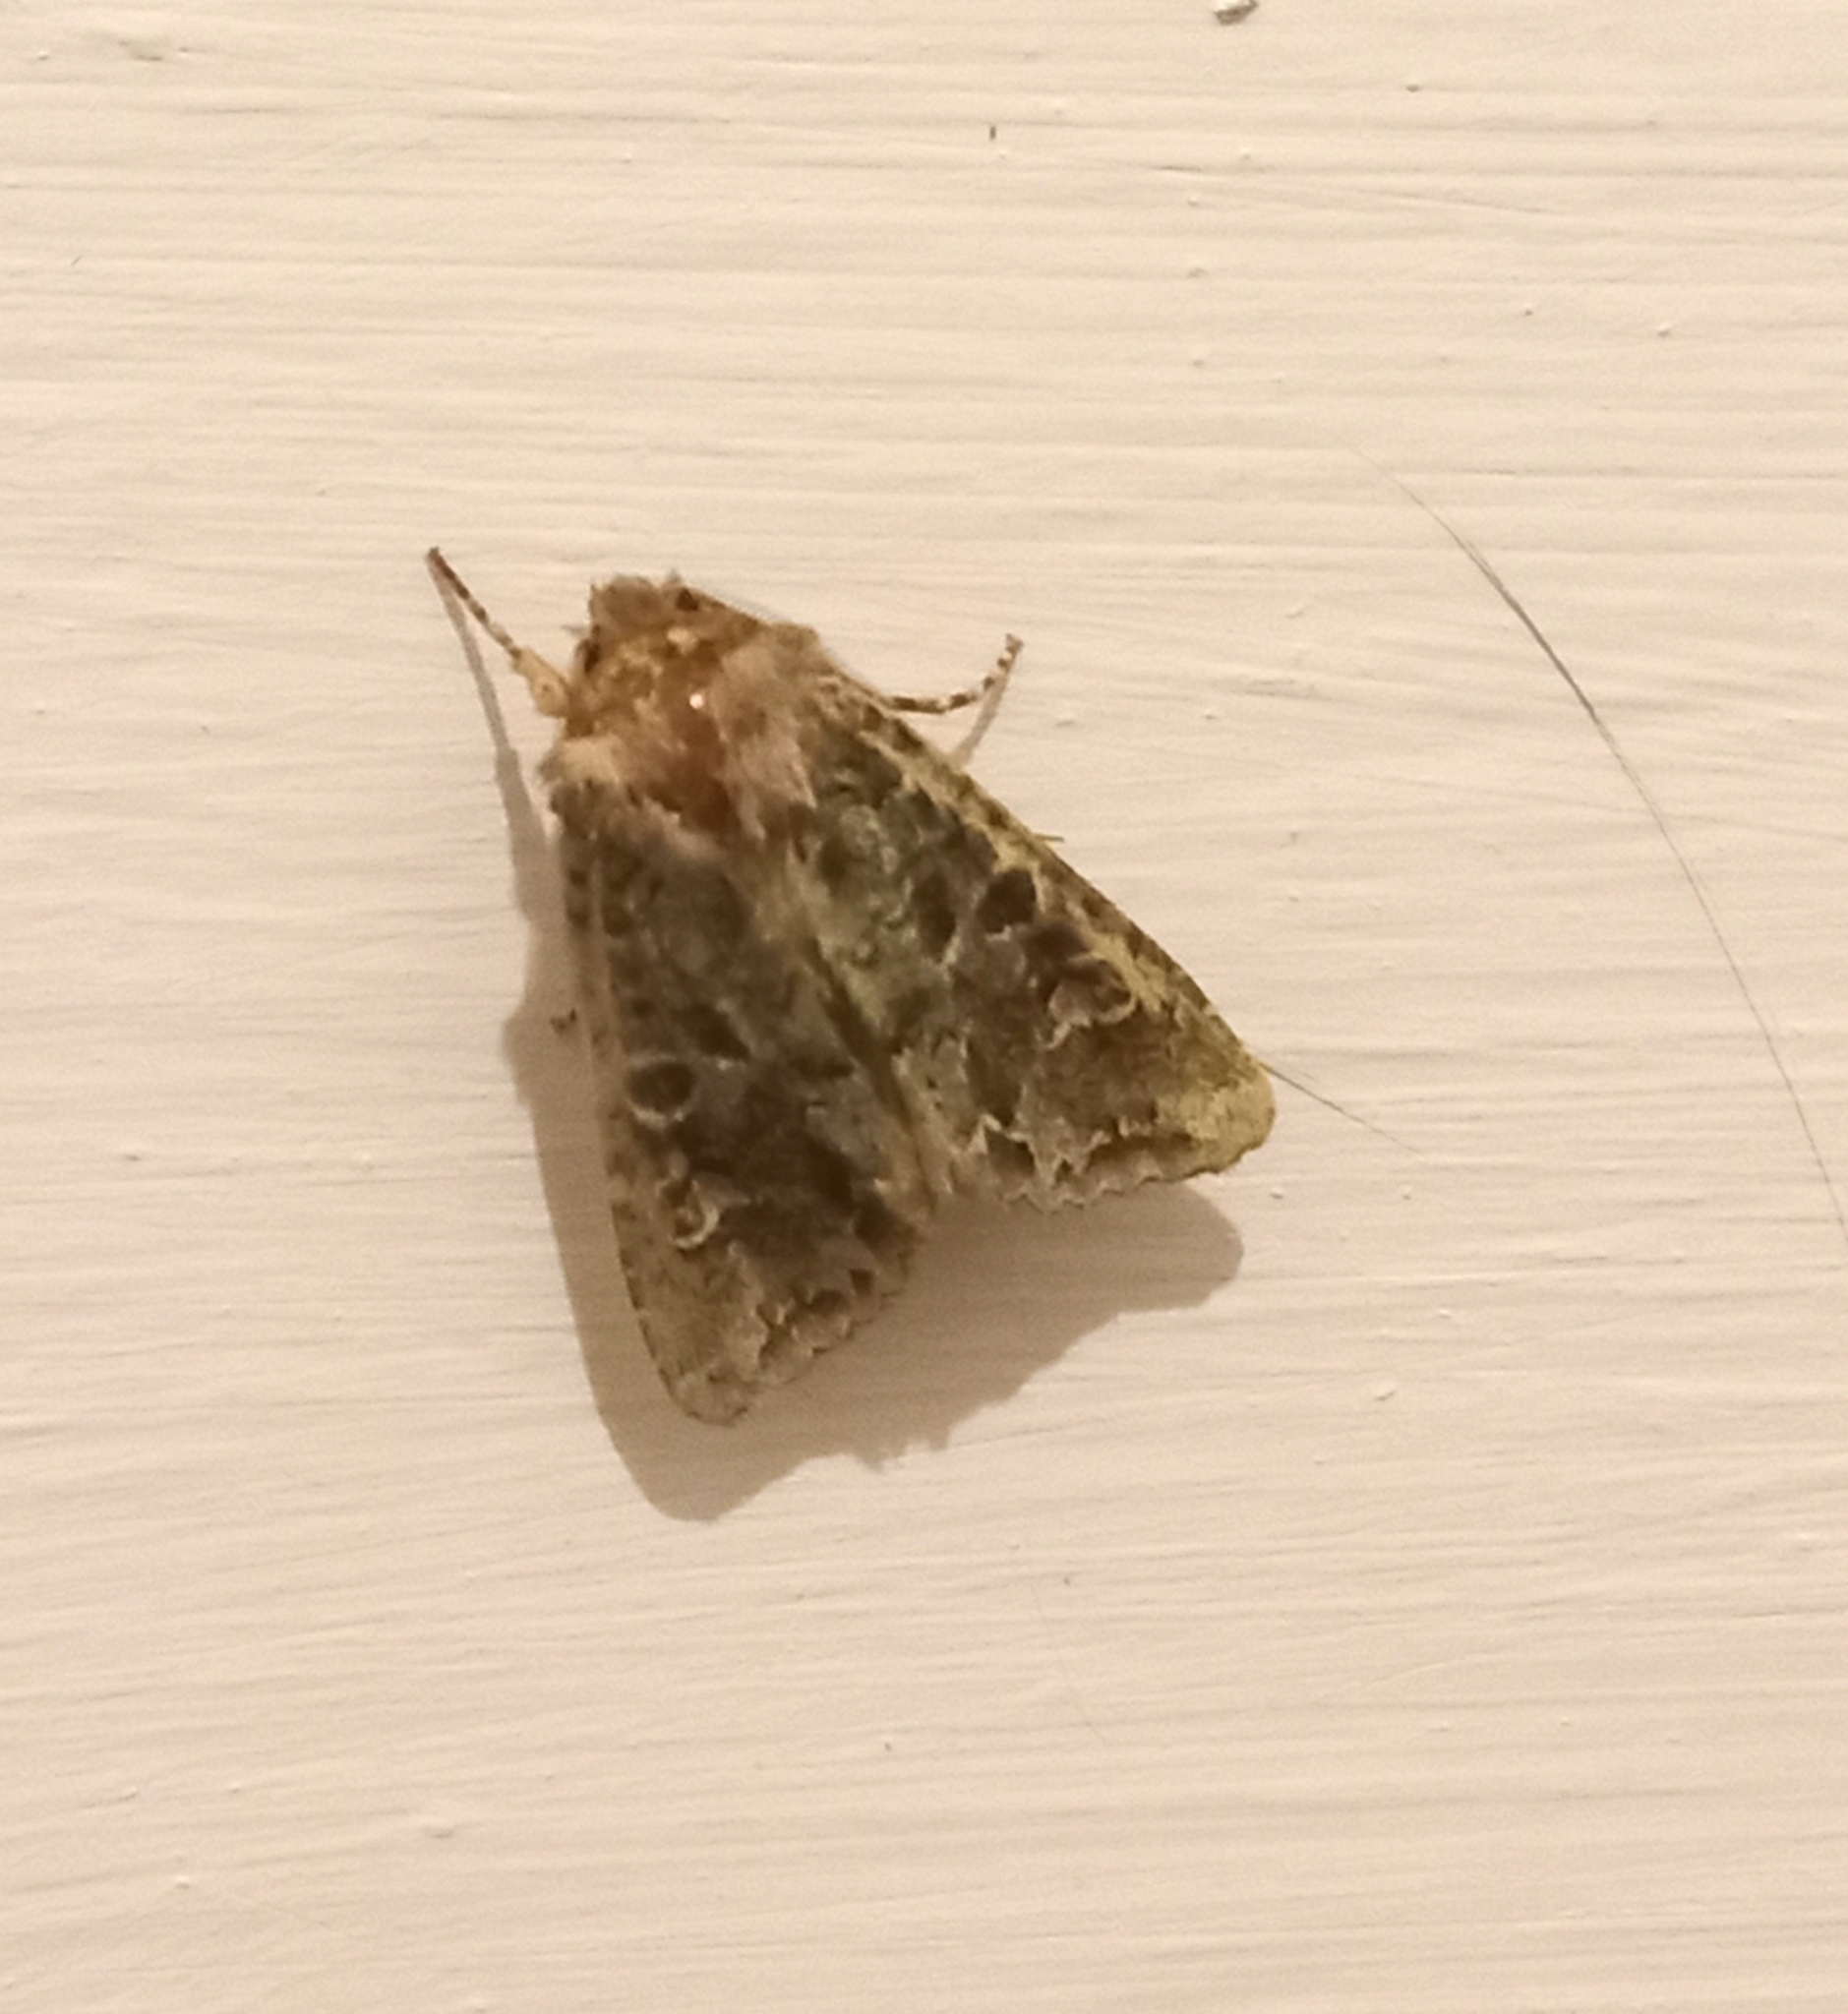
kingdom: Animalia
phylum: Arthropoda
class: Insecta
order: Lepidoptera
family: Noctuidae
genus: Ichneutica
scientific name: Ichneutica
